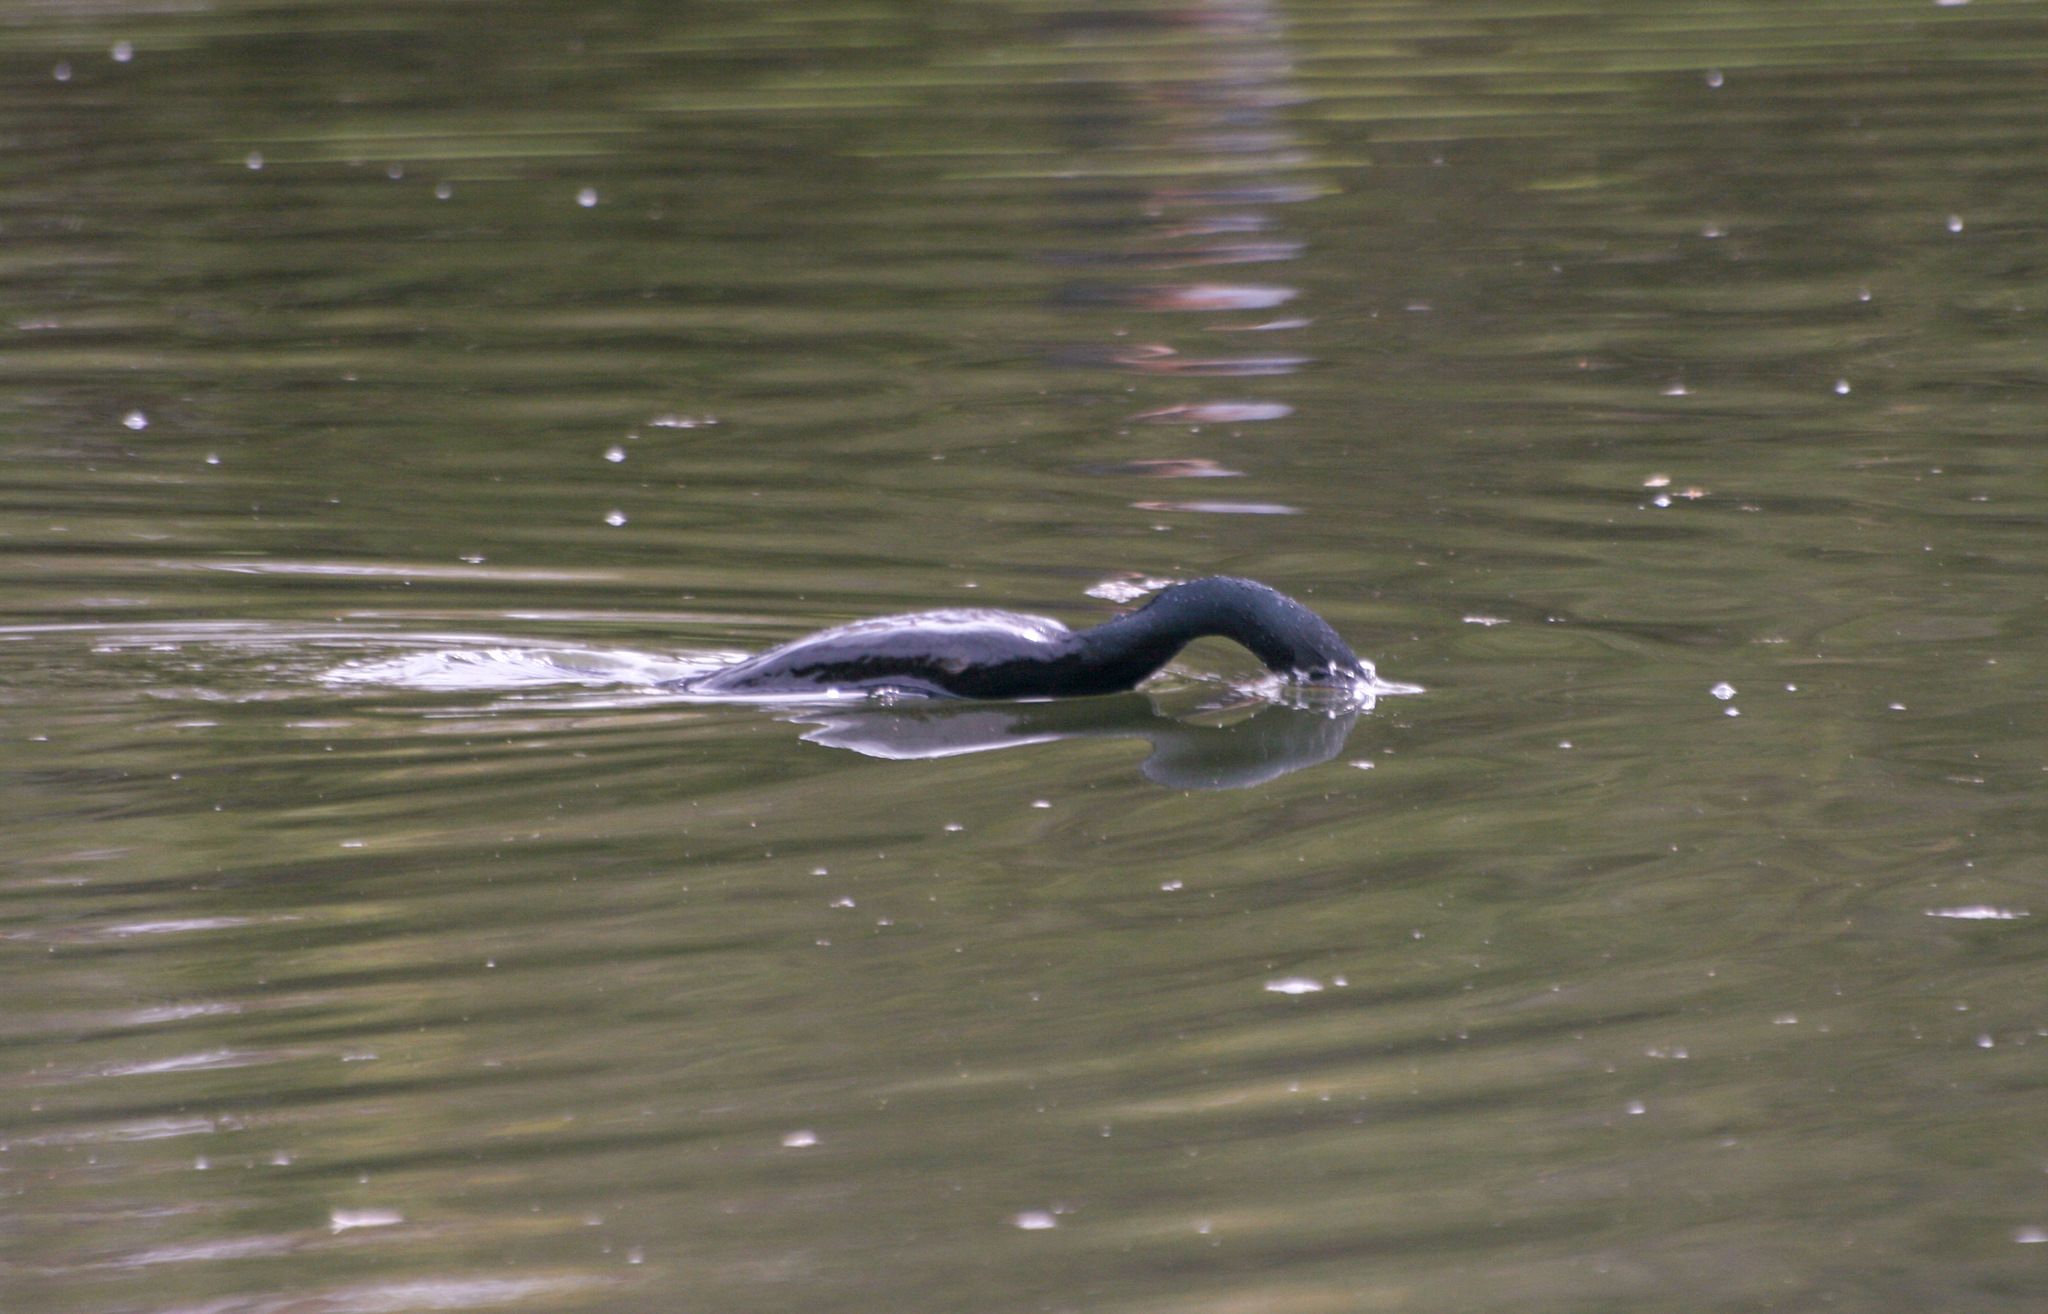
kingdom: Animalia
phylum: Chordata
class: Aves
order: Suliformes
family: Phalacrocoracidae
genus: Phalacrocorax
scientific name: Phalacrocorax auritus
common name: Double-crested cormorant
